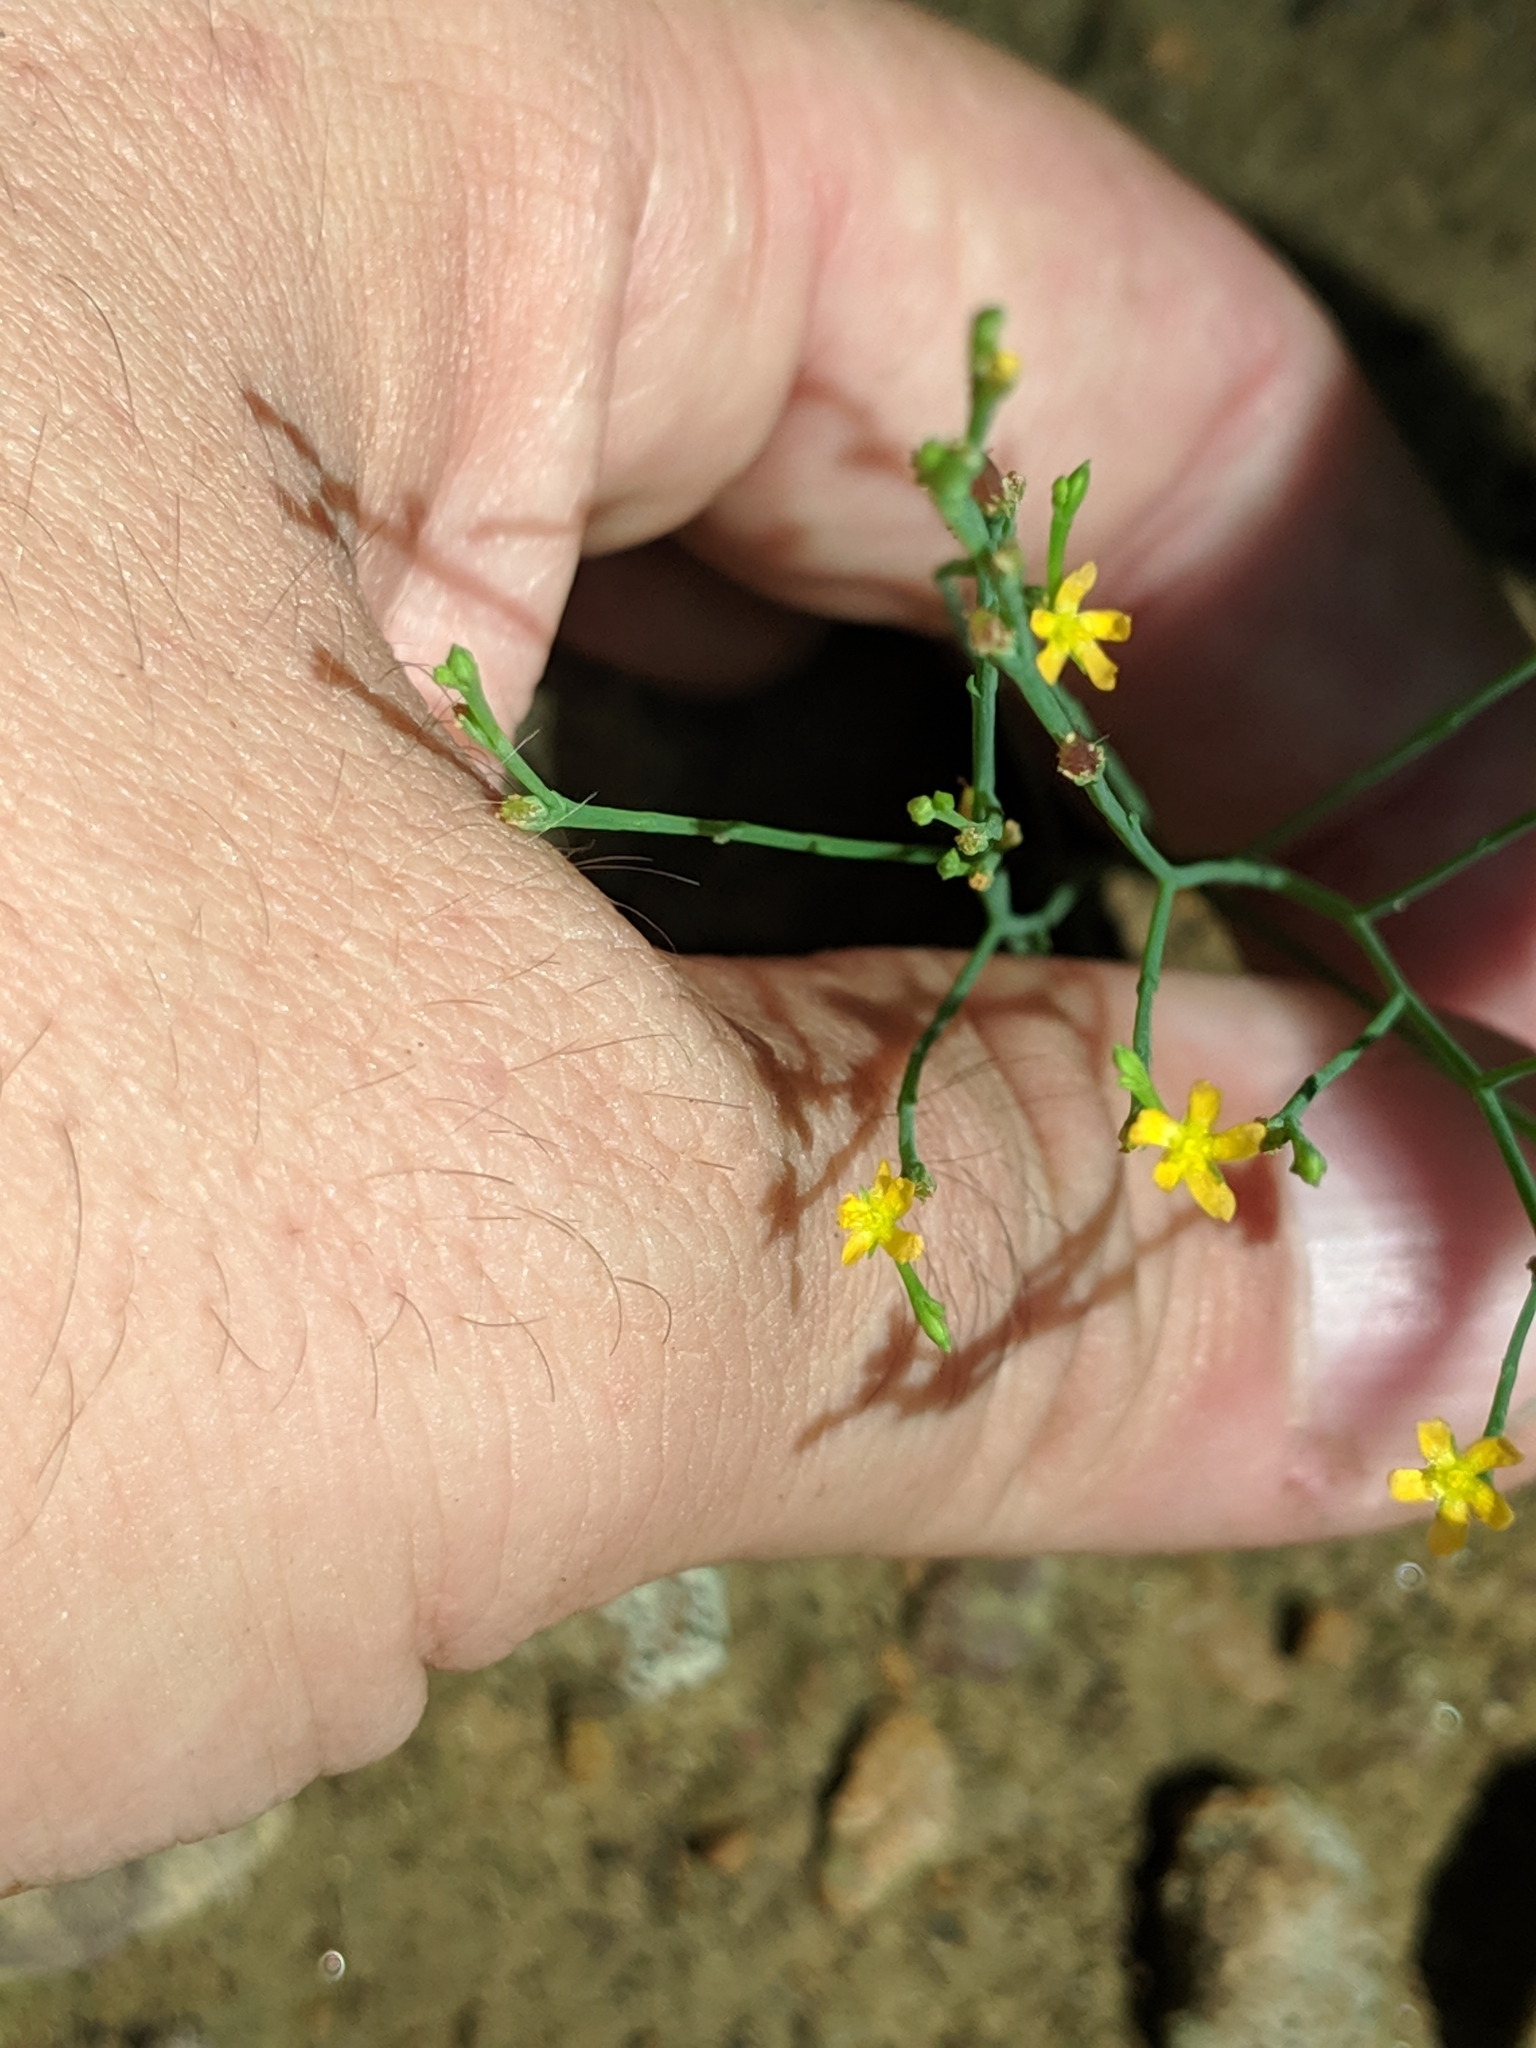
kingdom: Plantae
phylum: Tracheophyta
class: Magnoliopsida
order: Malpighiales
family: Hypericaceae
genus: Hypericum
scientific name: Hypericum gentianoides
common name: Gentian-leaved st. john's-wort
